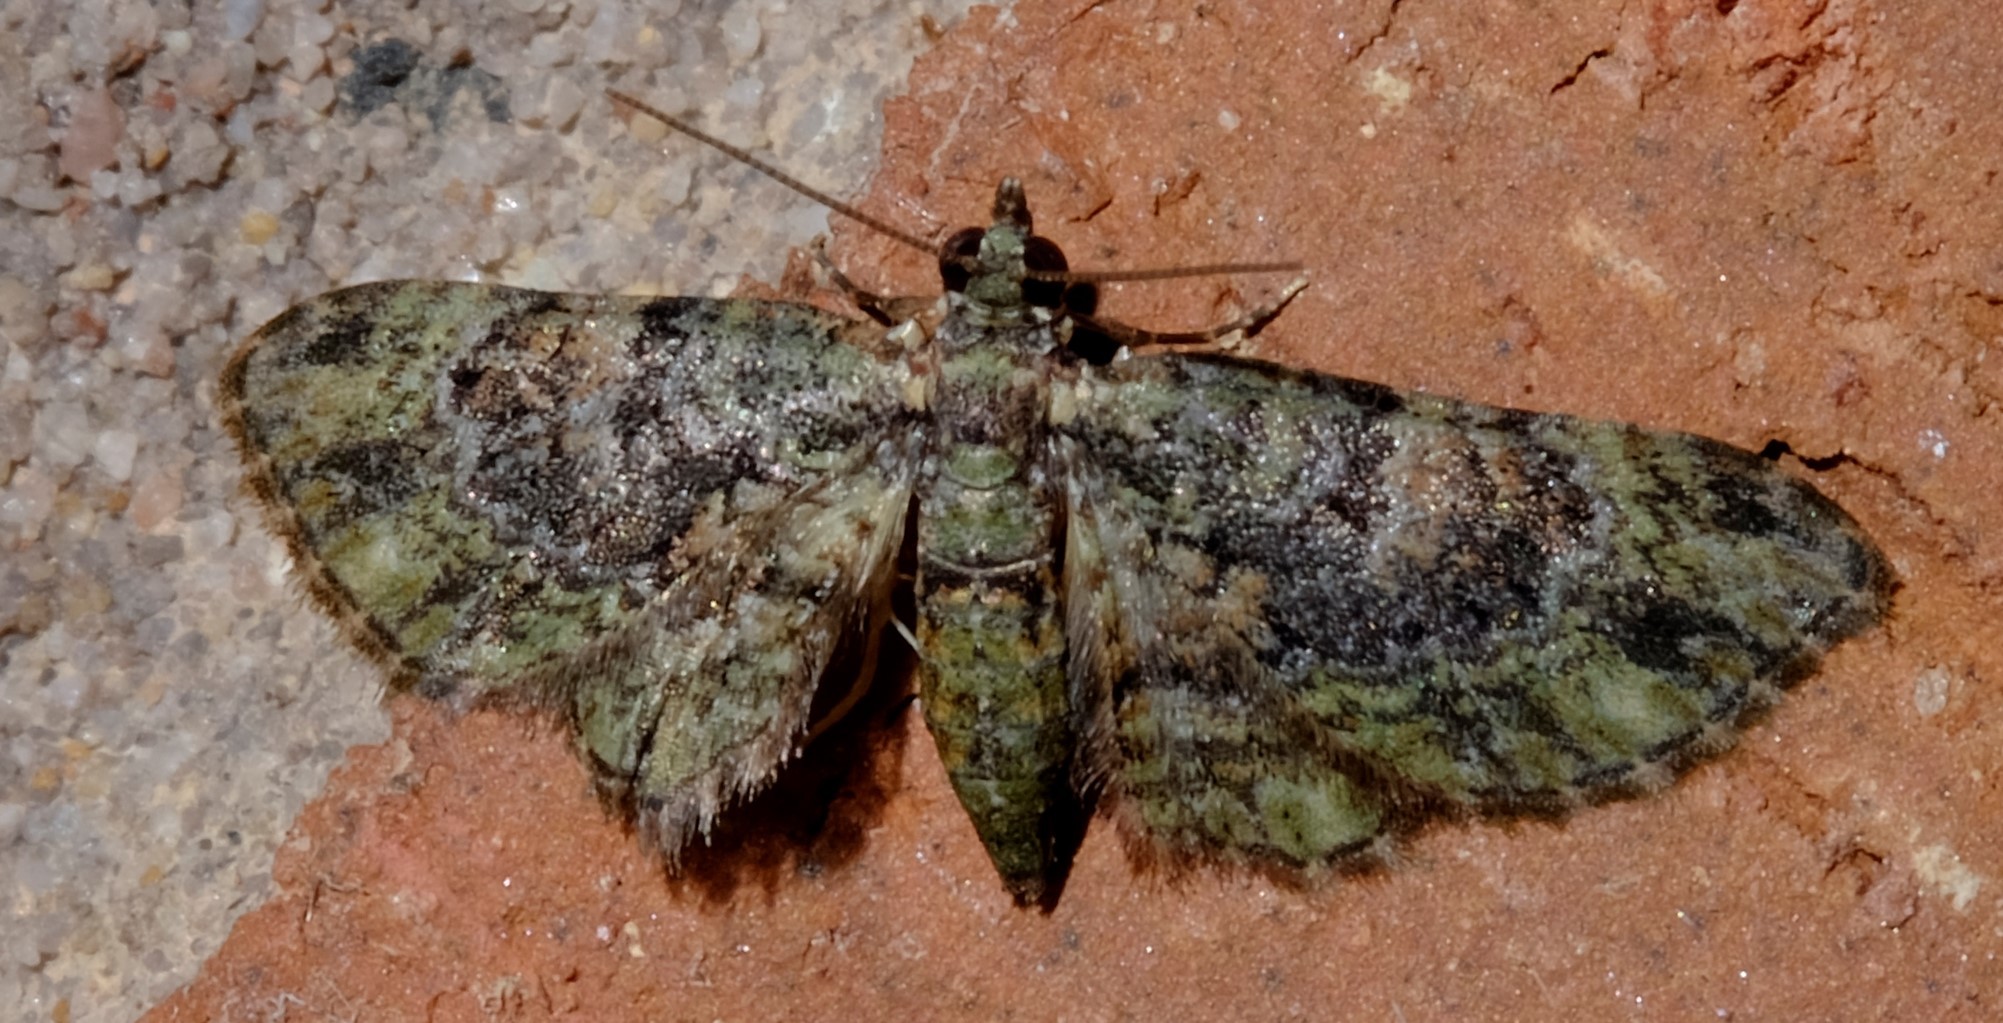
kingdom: Animalia
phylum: Arthropoda
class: Insecta
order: Lepidoptera
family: Geometridae
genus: Chloroclystis
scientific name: Chloroclystis catastreptes
